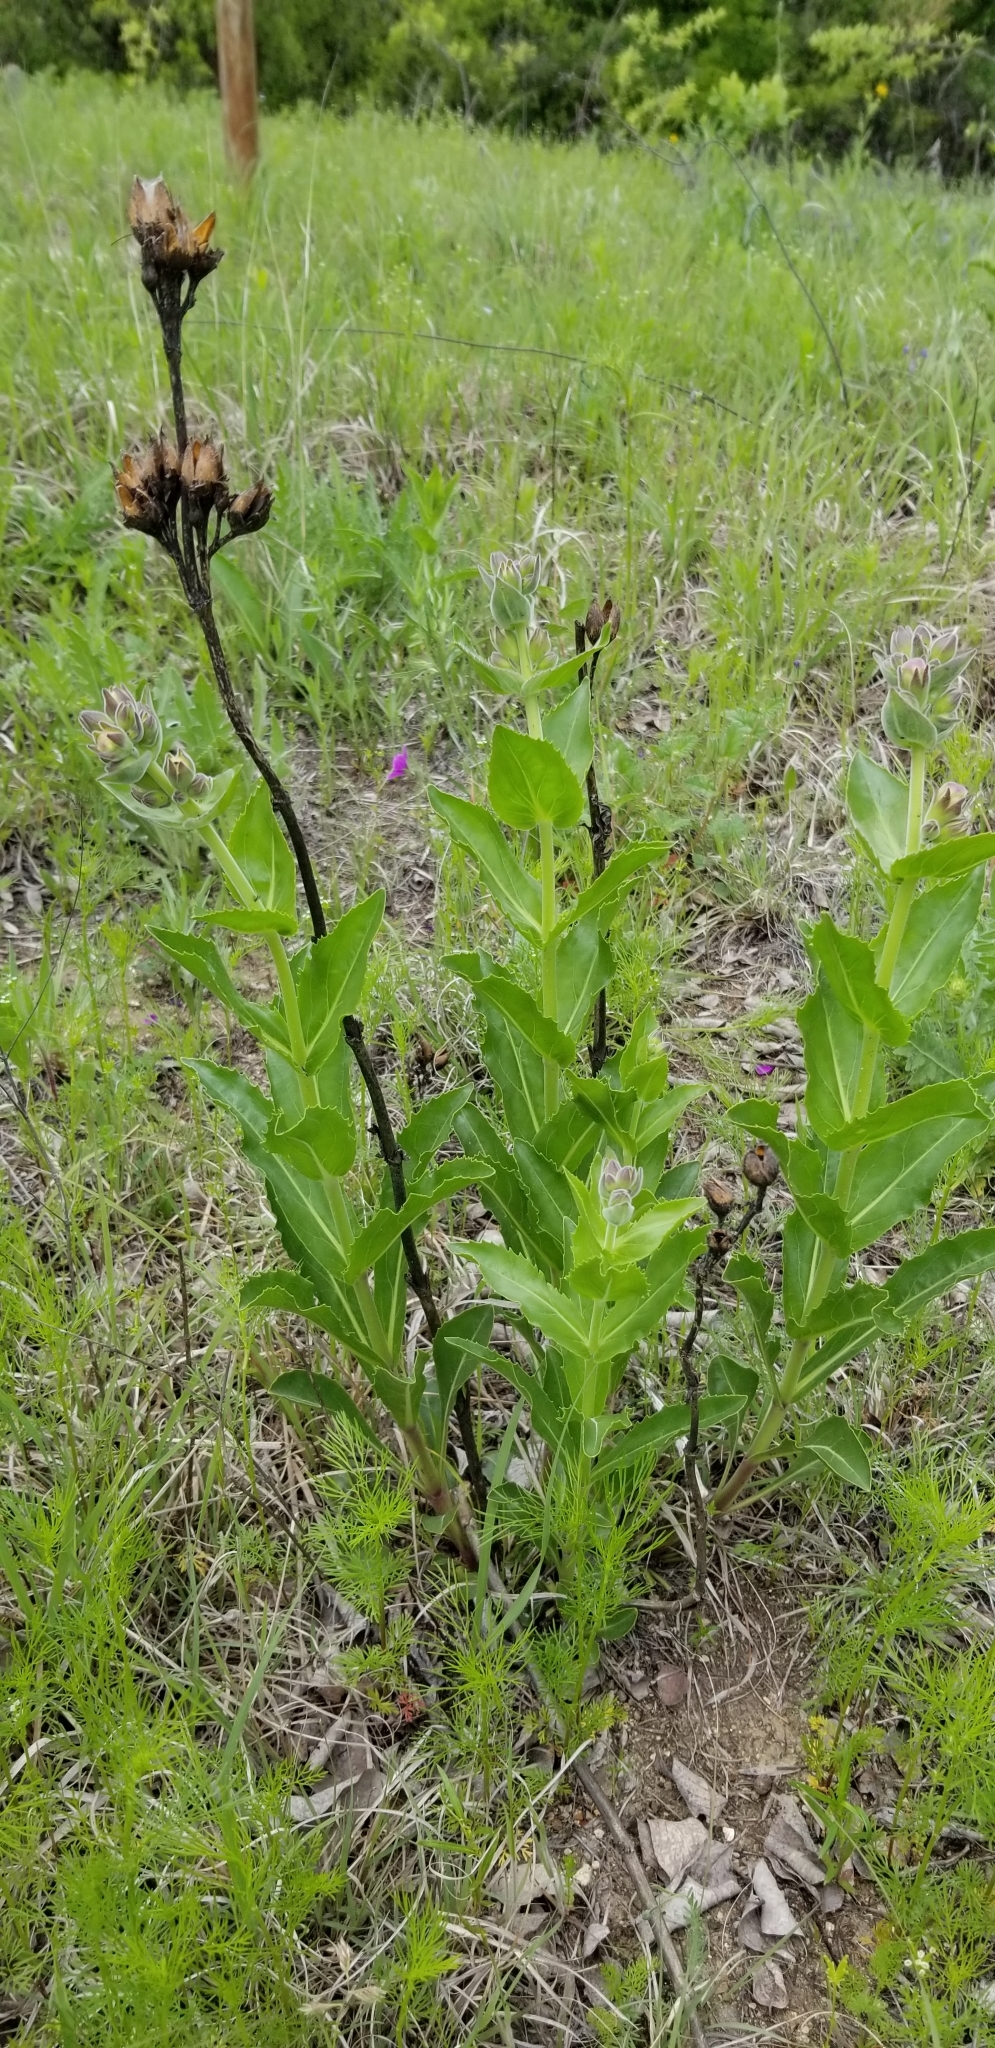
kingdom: Plantae
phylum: Tracheophyta
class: Magnoliopsida
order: Lamiales
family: Plantaginaceae
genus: Penstemon
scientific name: Penstemon cobaea
